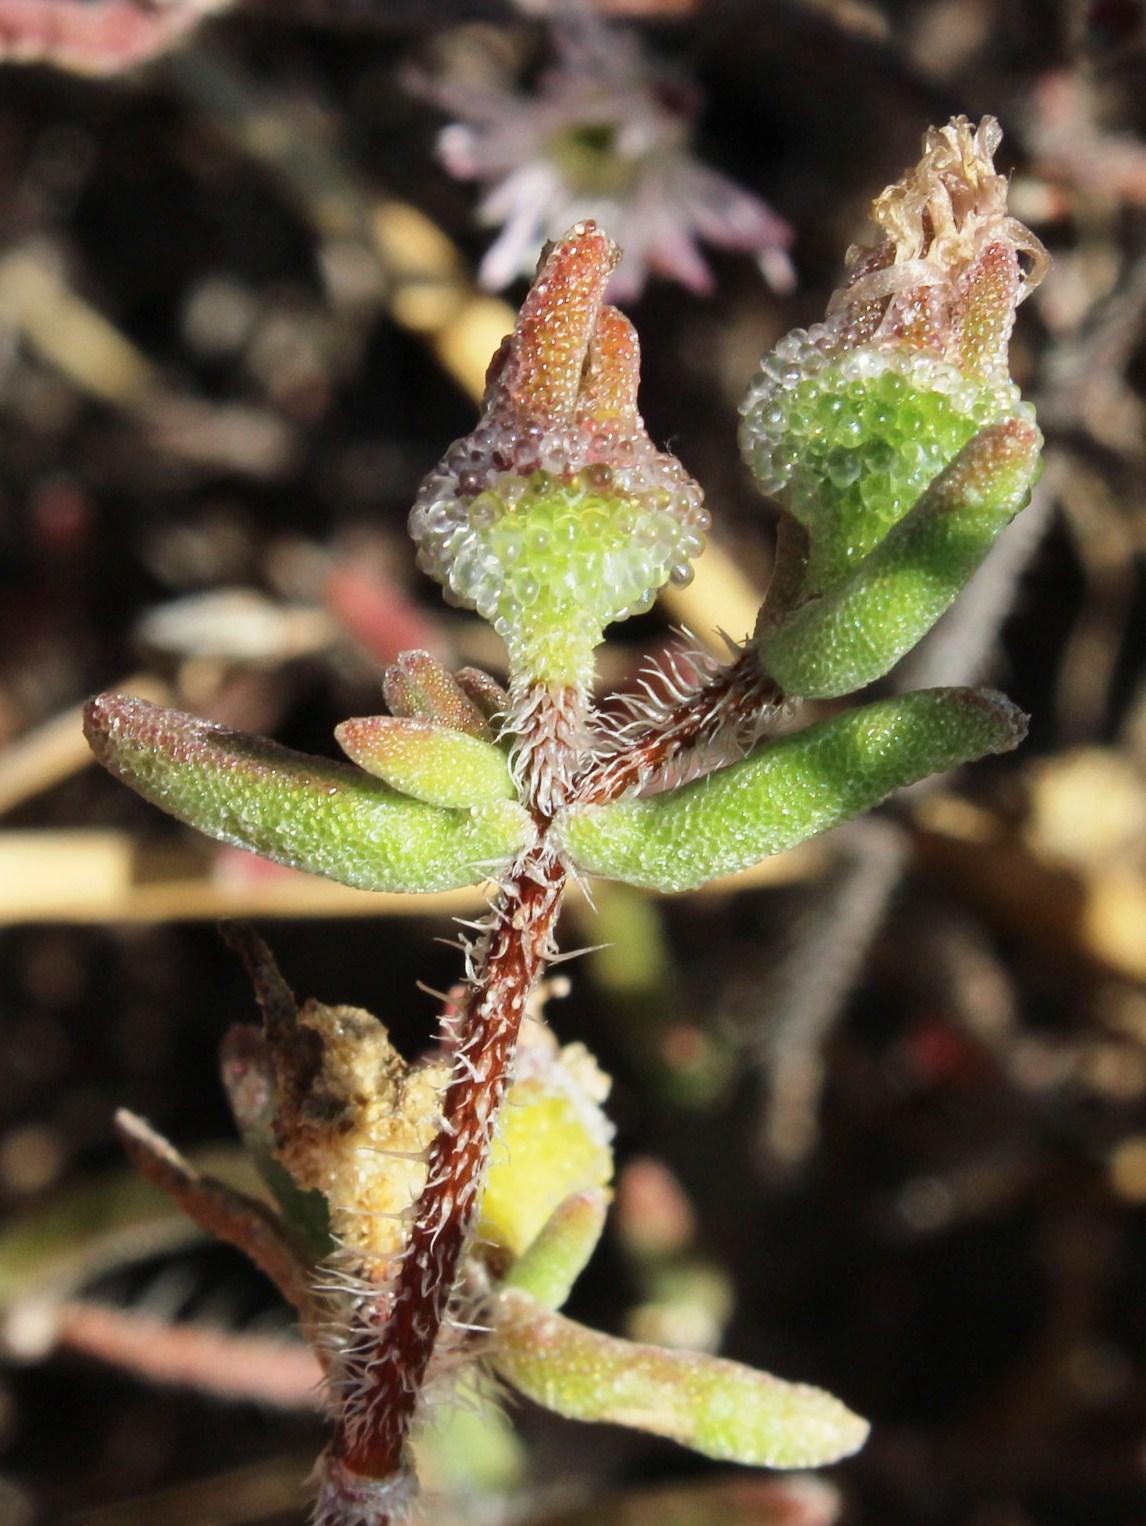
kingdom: Plantae
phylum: Tracheophyta
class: Magnoliopsida
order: Caryophyllales
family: Aizoaceae
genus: Drosanthemum
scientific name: Drosanthemum calycinum
